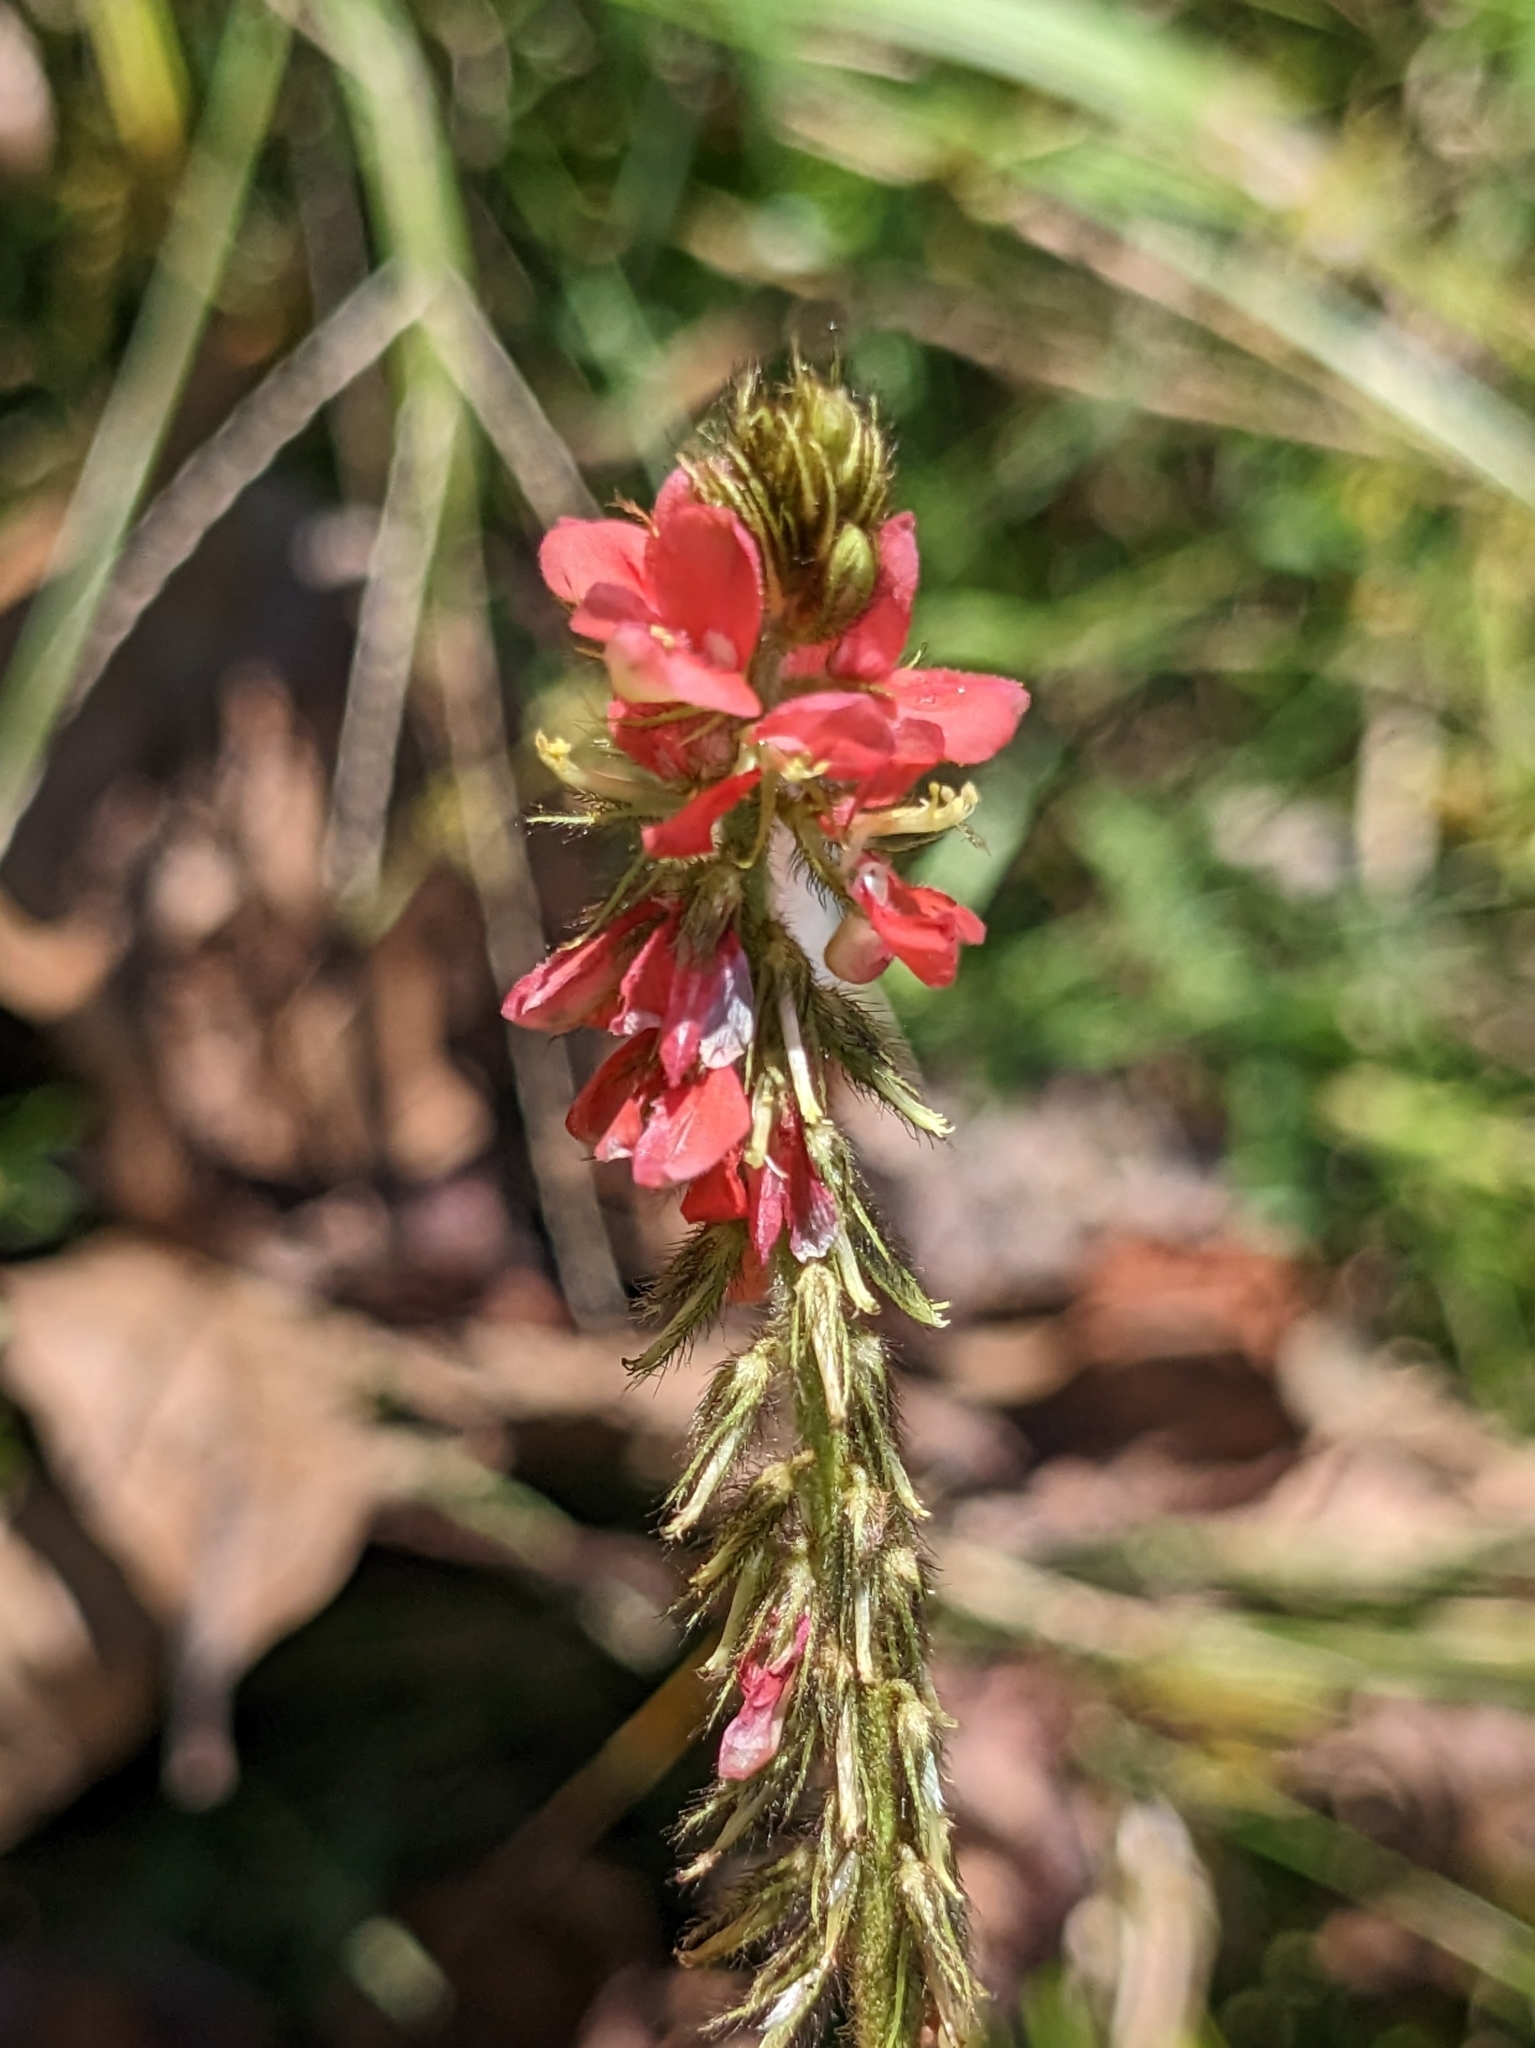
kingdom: Plantae
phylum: Tracheophyta
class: Magnoliopsida
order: Fabales
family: Fabaceae
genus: Indigofera
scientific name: Indigofera hirsuta
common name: Hairy indigo
